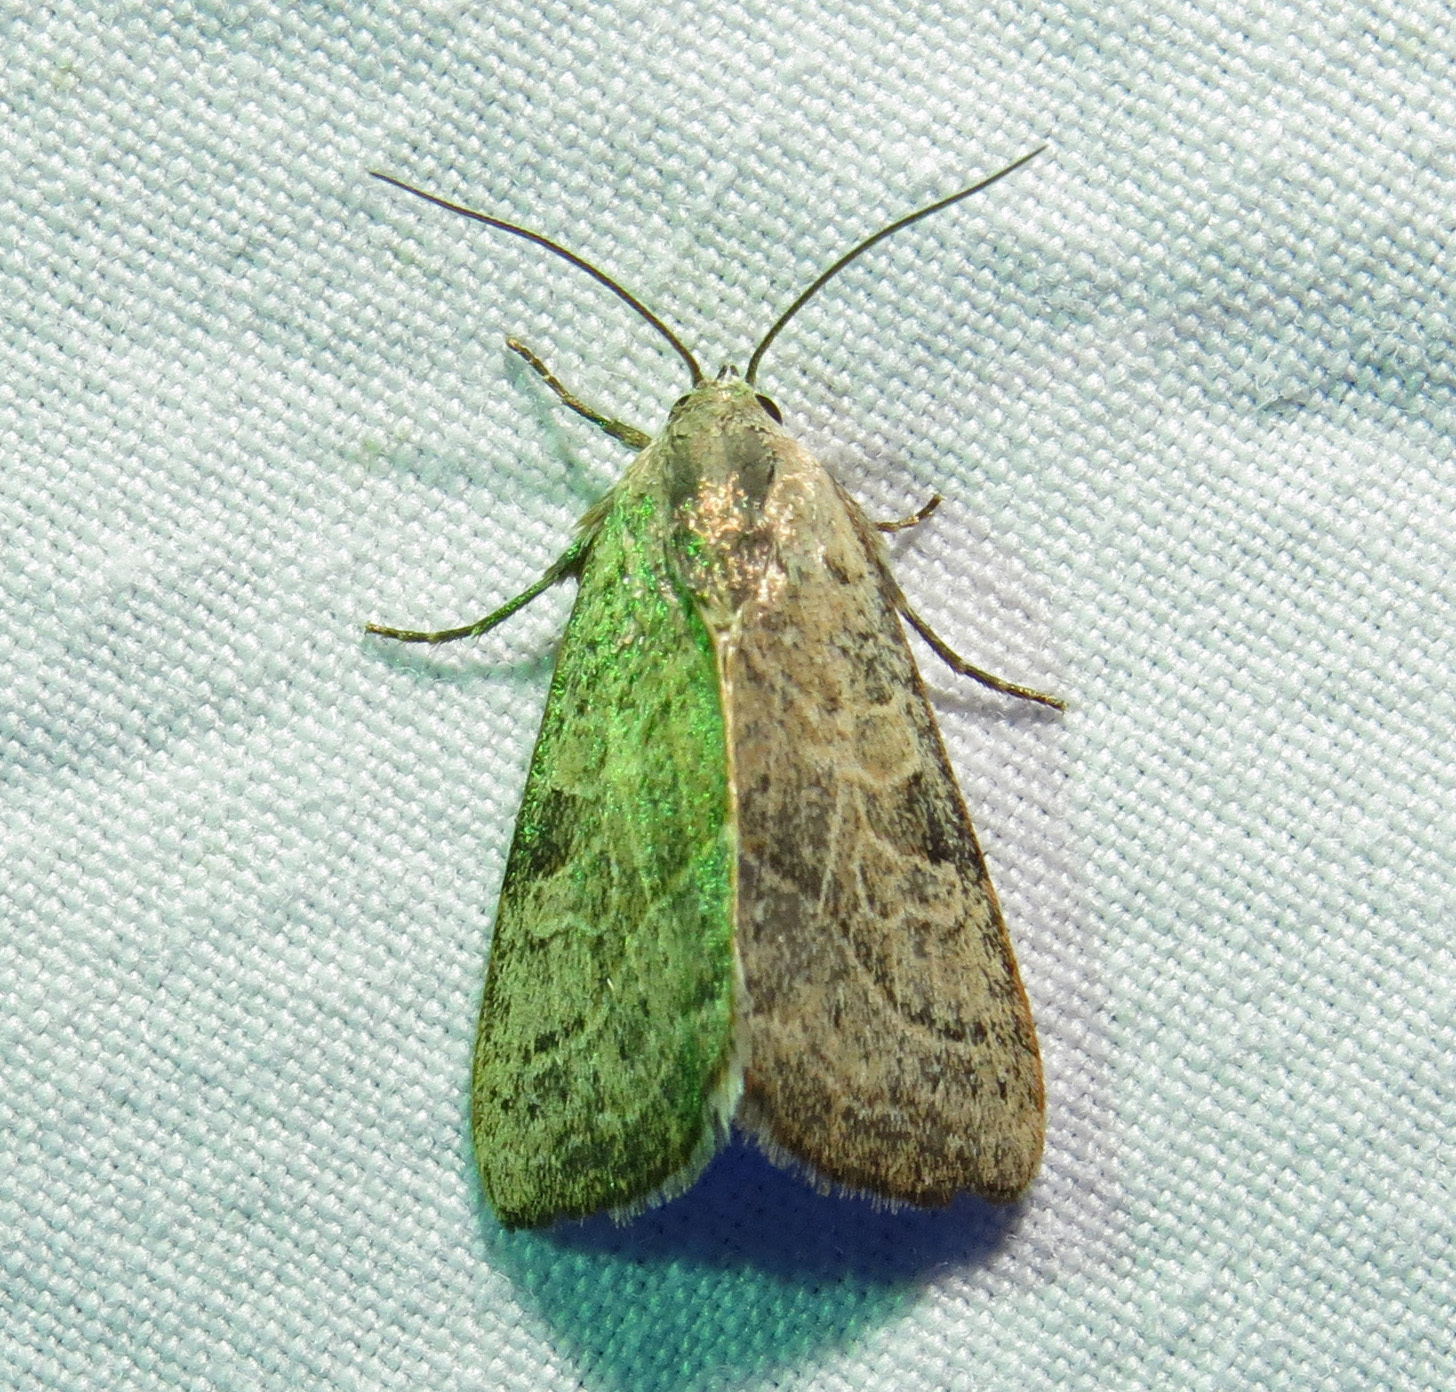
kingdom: Animalia
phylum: Arthropoda
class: Insecta
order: Lepidoptera
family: Noctuidae
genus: Galgula
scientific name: Galgula partita
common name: Wedgeling
